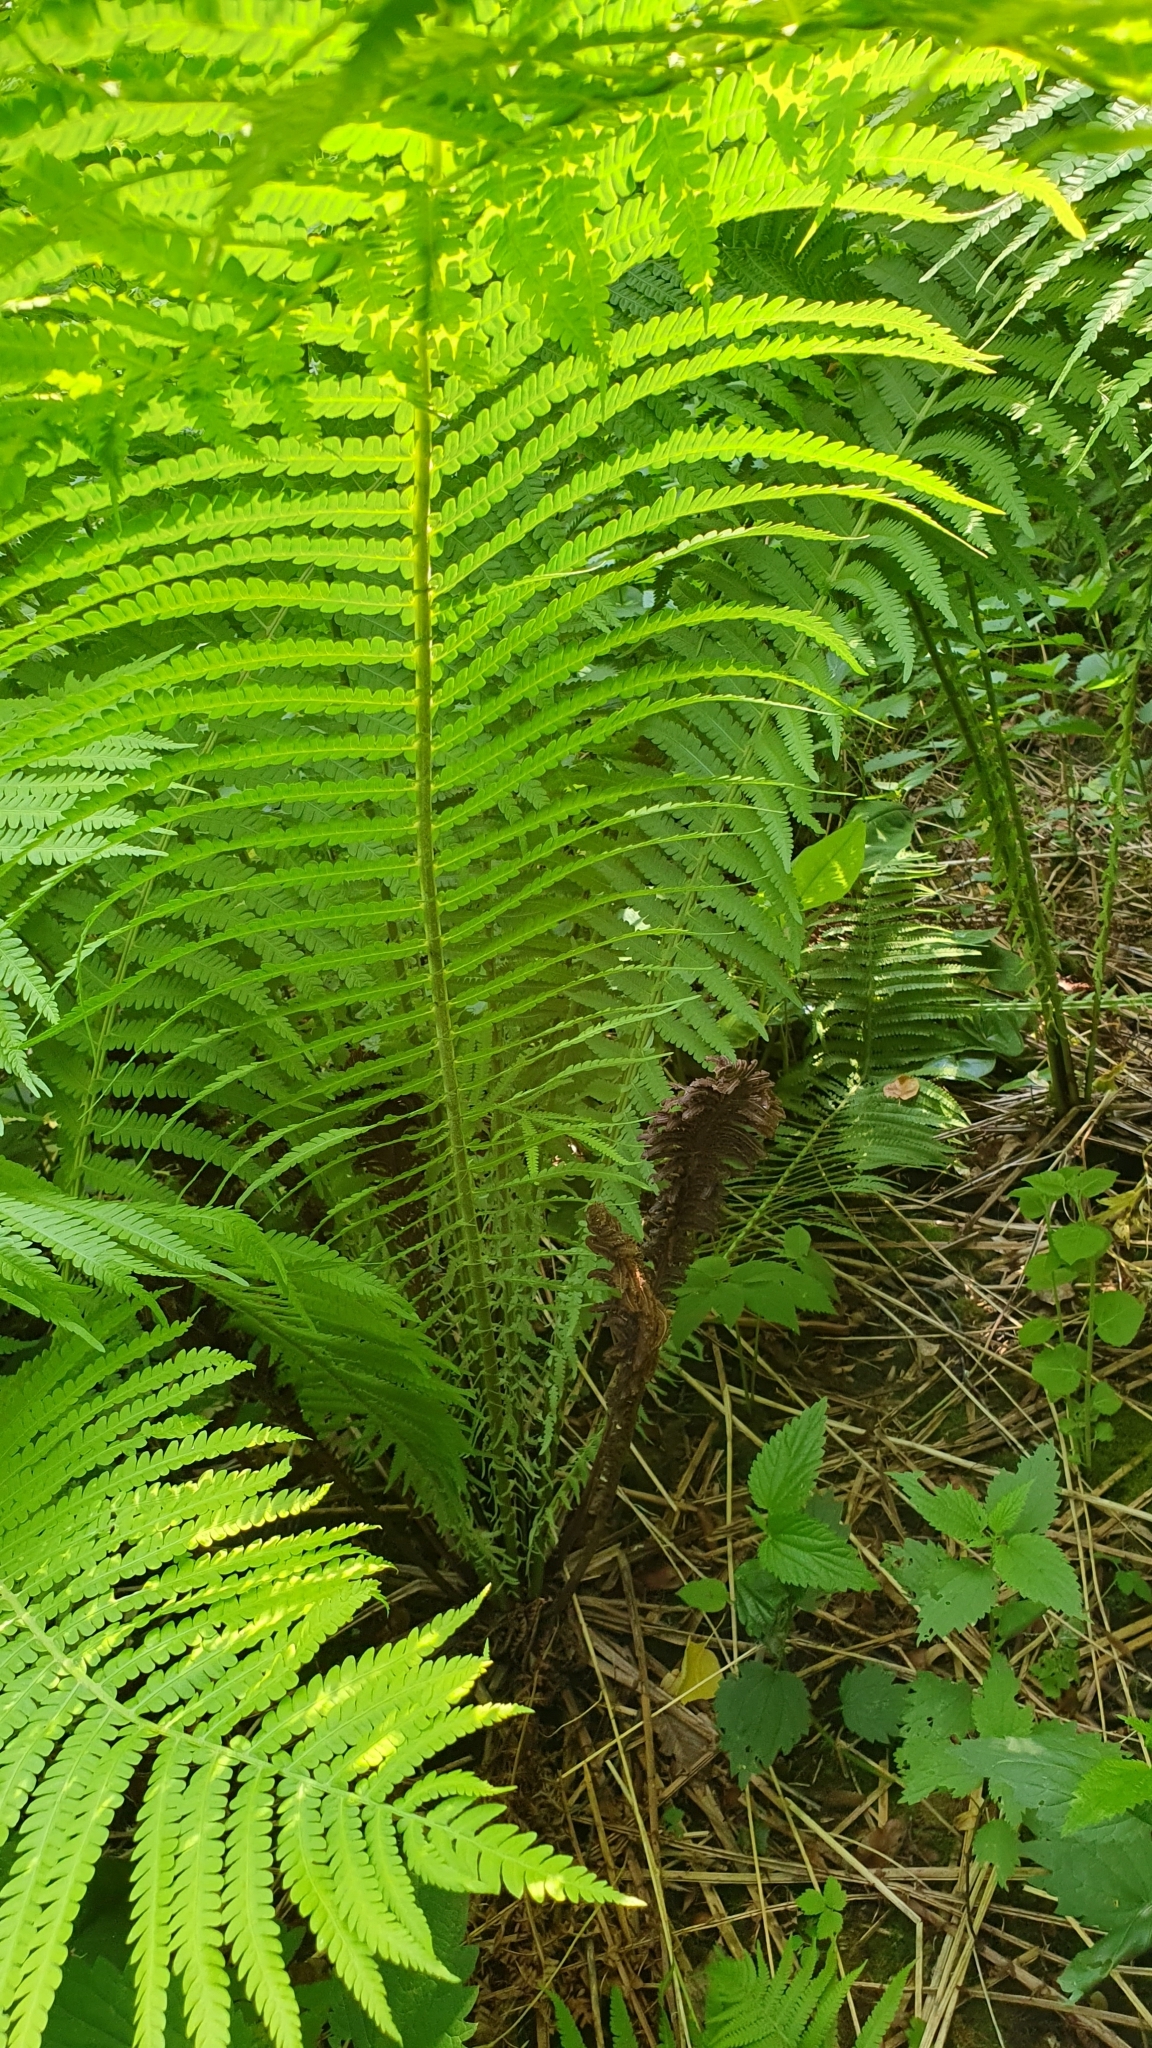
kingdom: Plantae
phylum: Tracheophyta
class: Polypodiopsida
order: Polypodiales
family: Onocleaceae
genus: Matteuccia
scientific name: Matteuccia struthiopteris
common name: Ostrich fern
